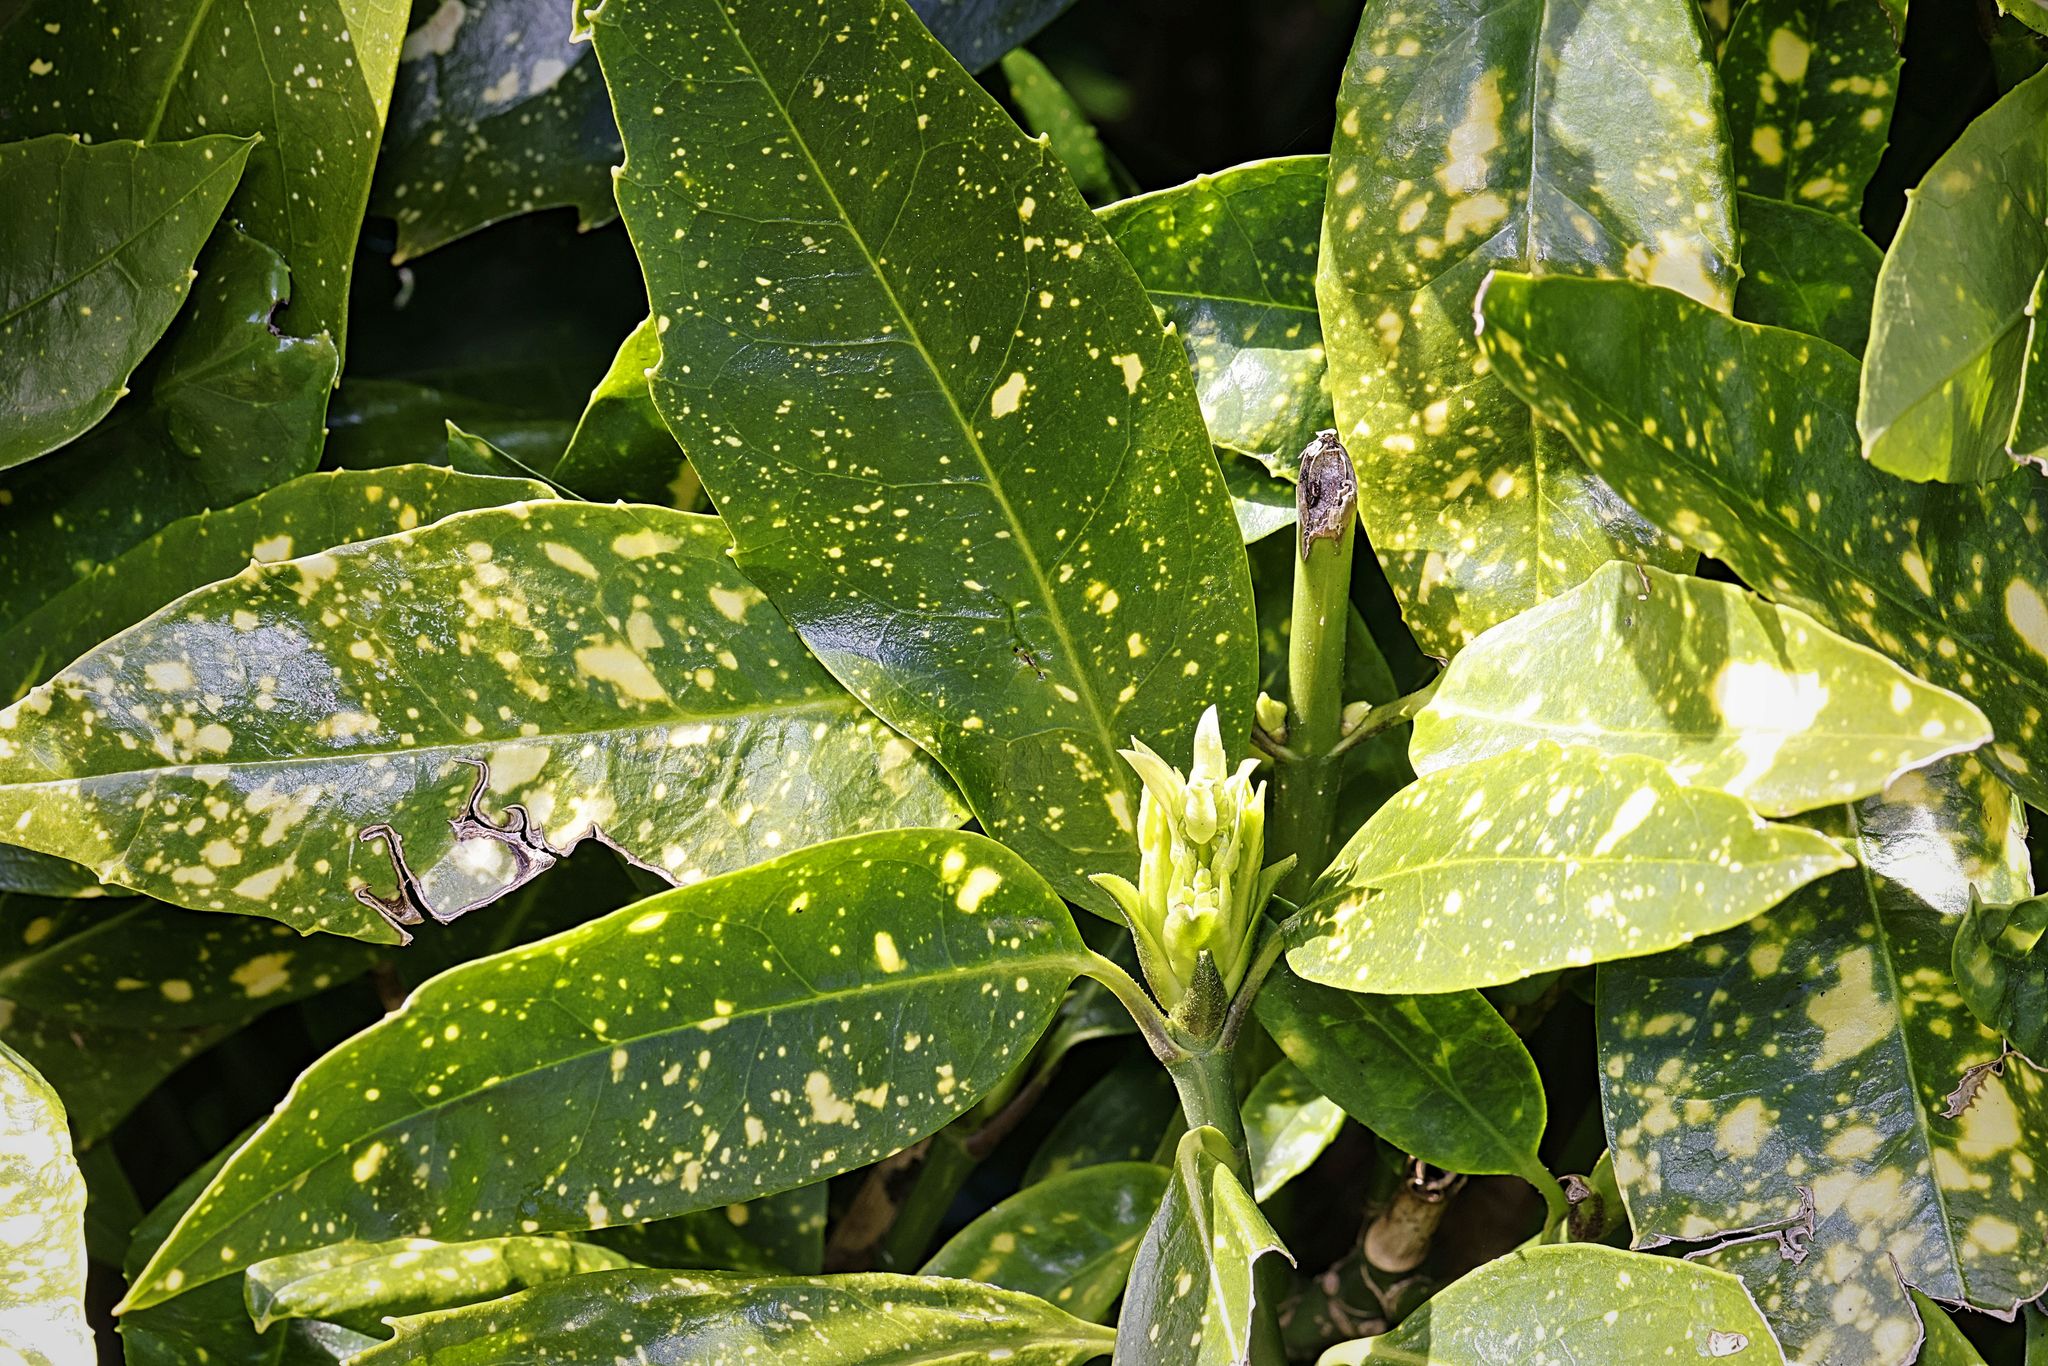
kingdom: Plantae
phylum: Tracheophyta
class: Magnoliopsida
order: Garryales
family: Garryaceae
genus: Aucuba
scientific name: Aucuba japonica
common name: Spotted-laurel
